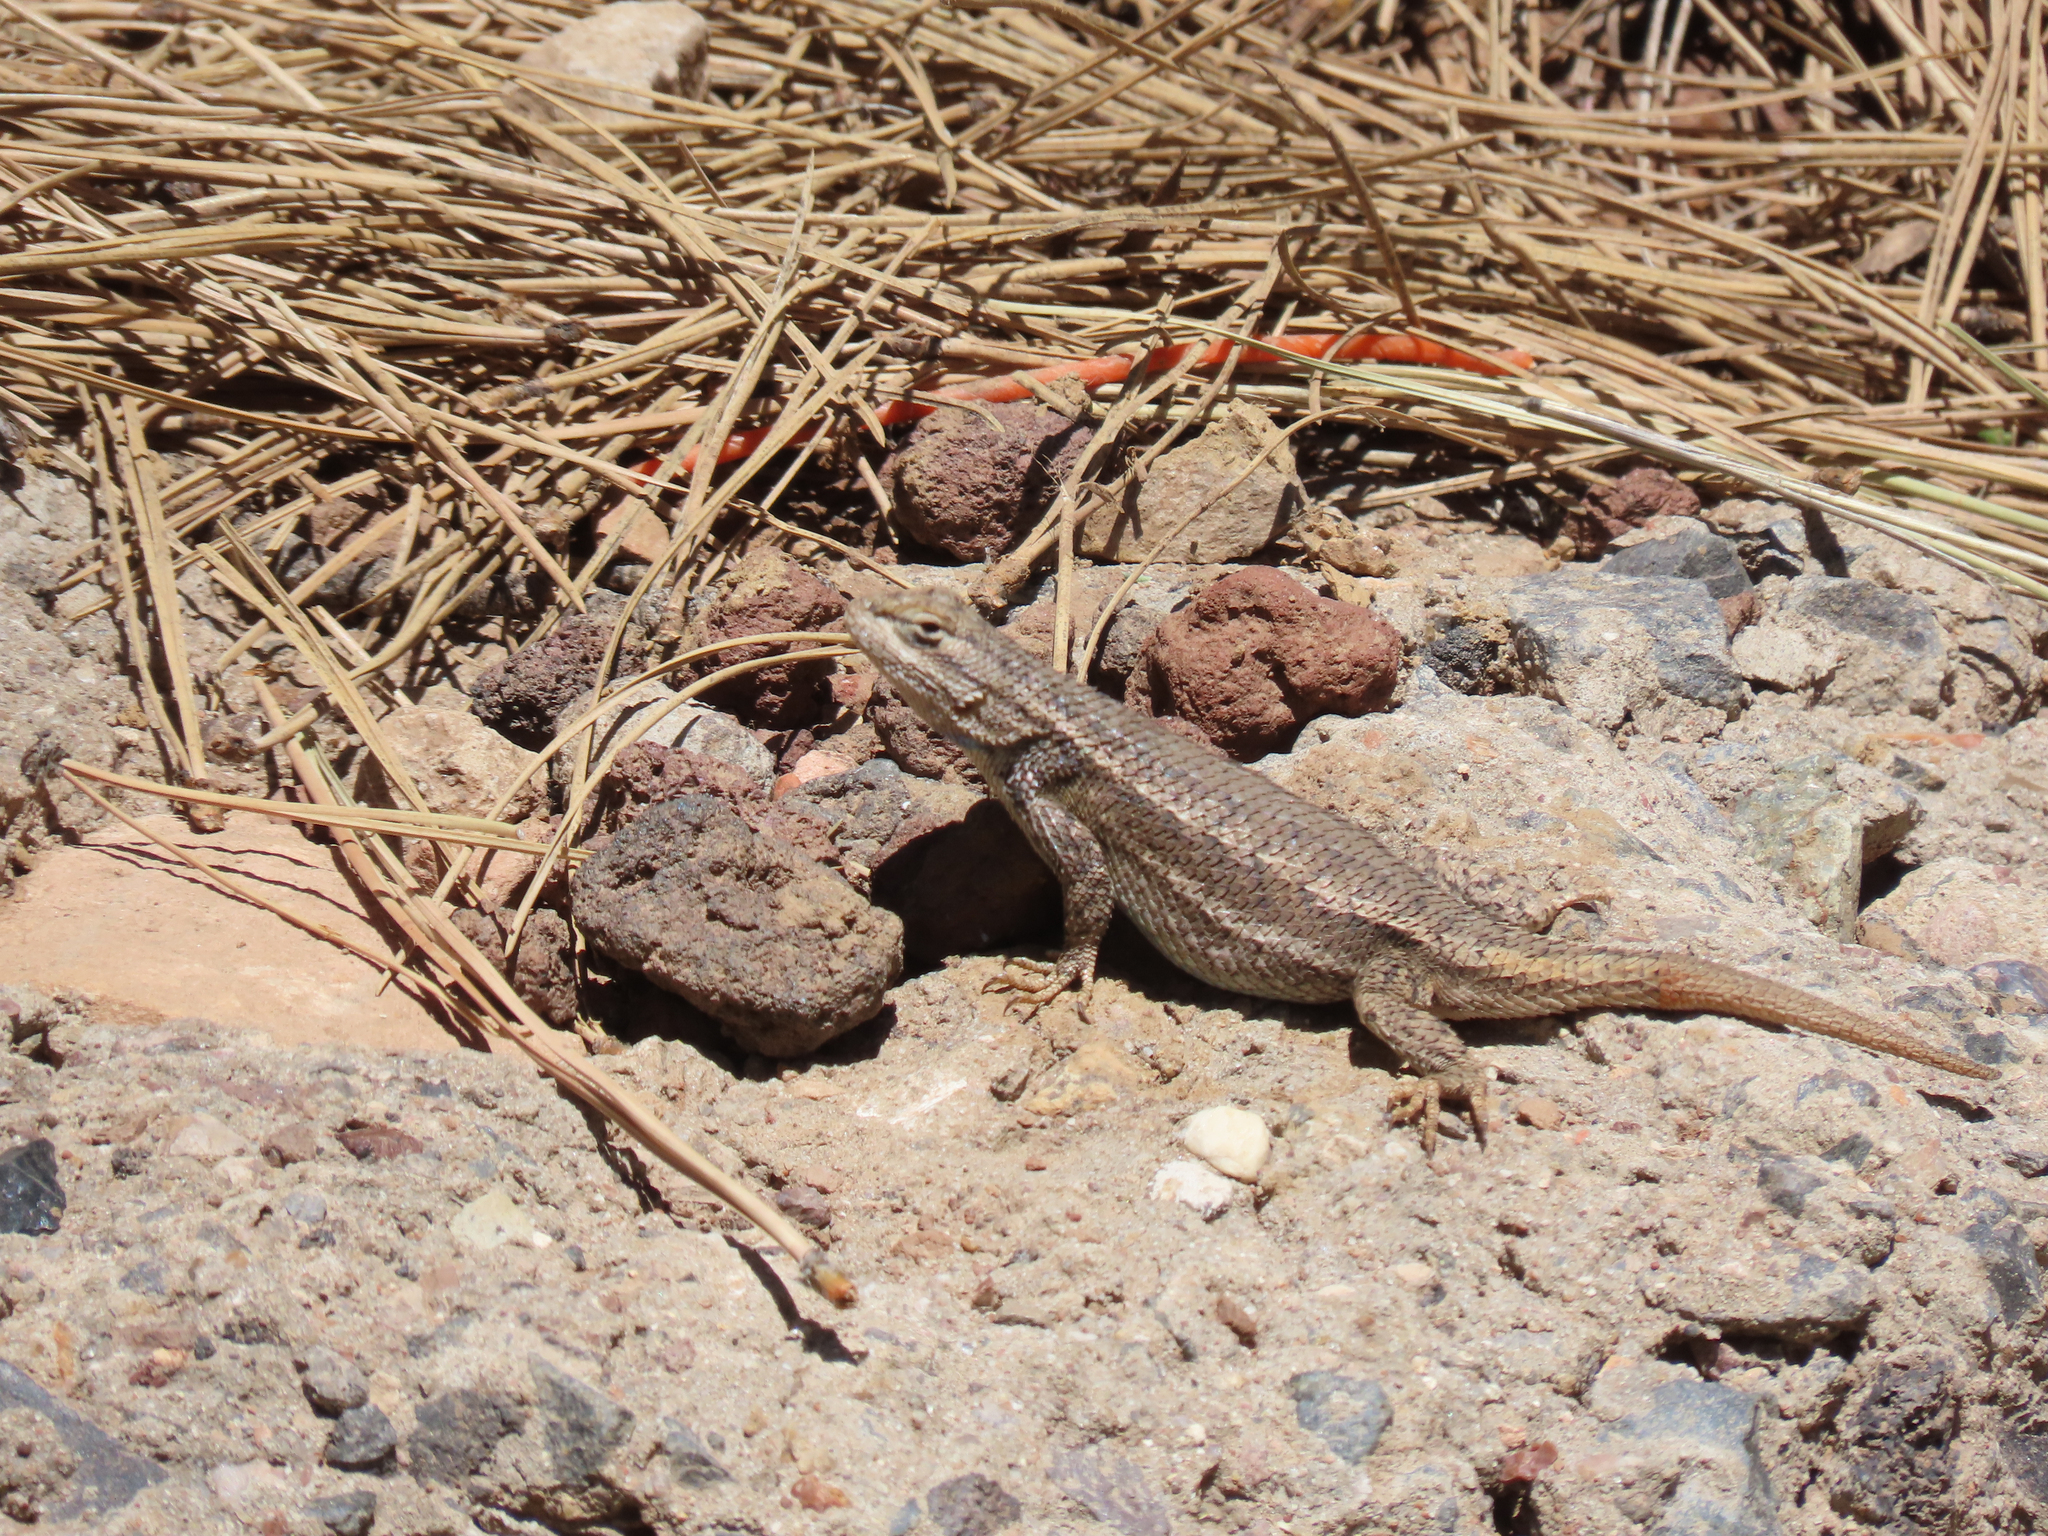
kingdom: Animalia
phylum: Chordata
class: Squamata
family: Phrynosomatidae
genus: Sceloporus
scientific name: Sceloporus tristichus
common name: Plateau fence lizard
